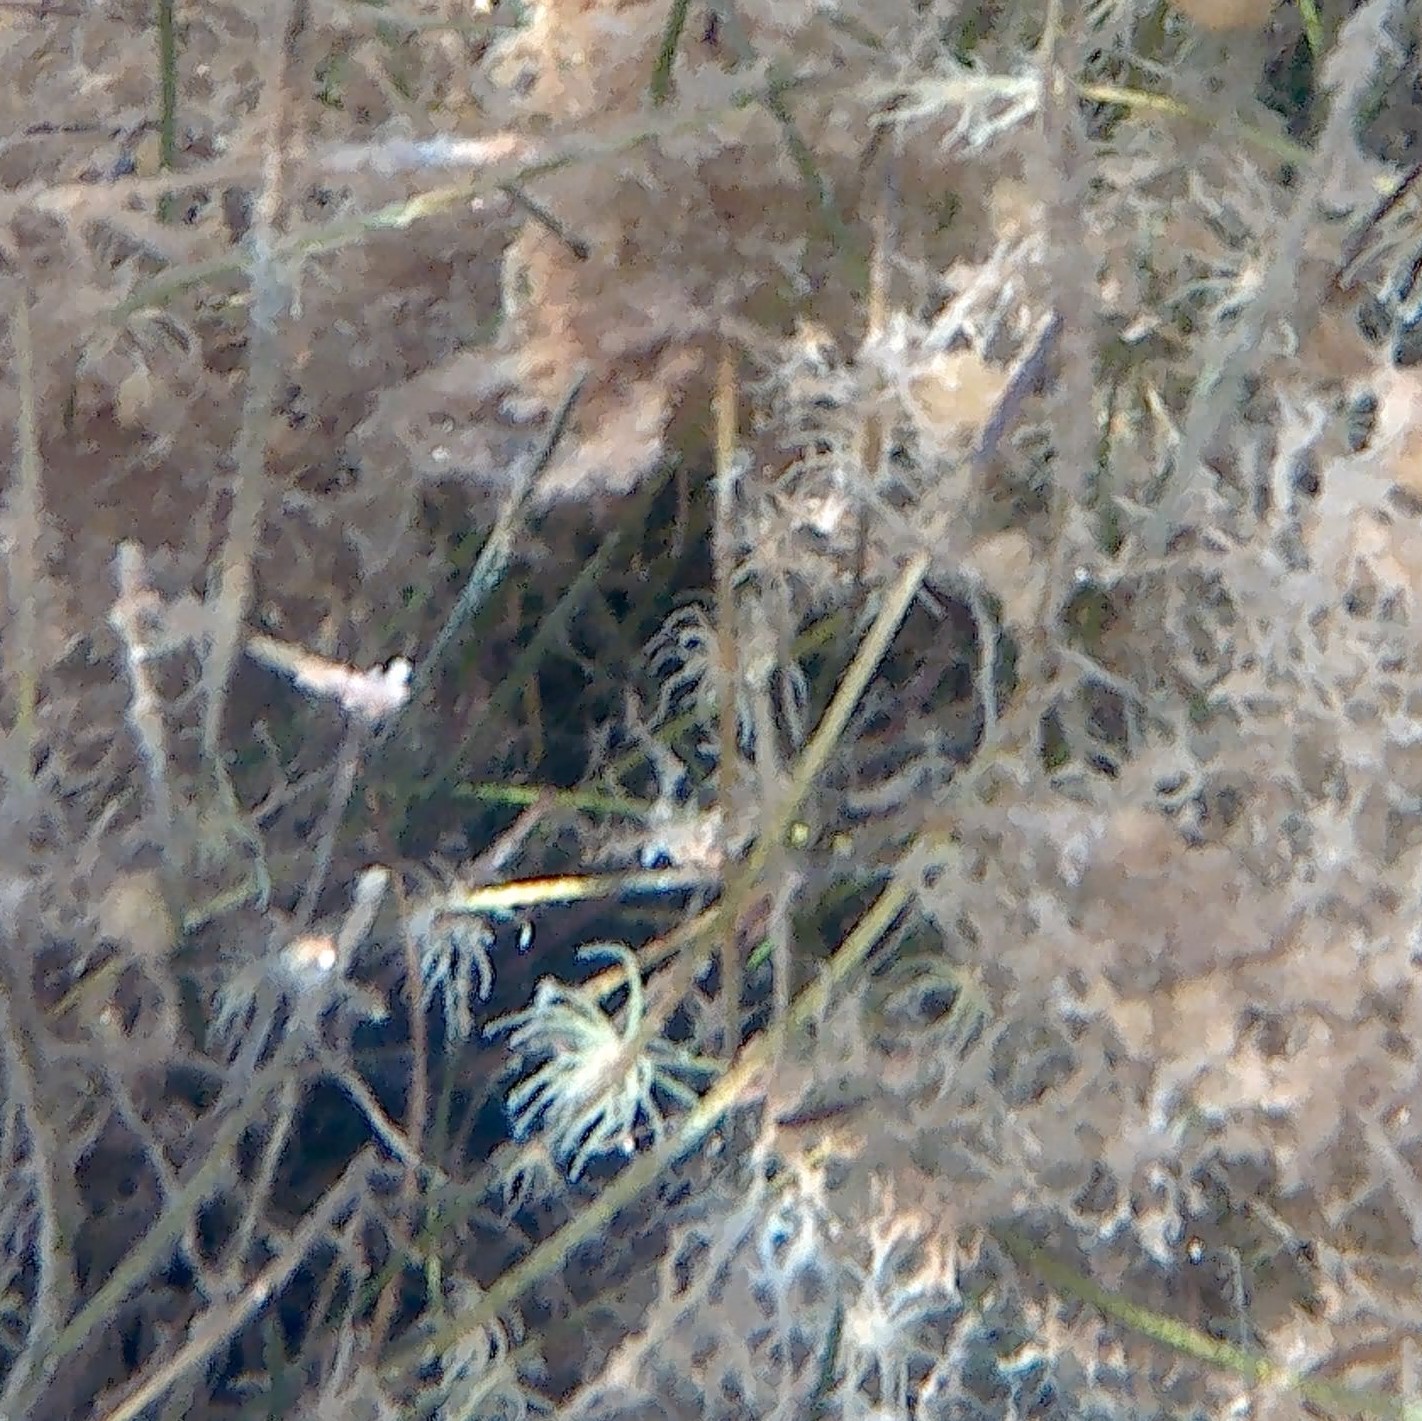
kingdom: Animalia
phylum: Cnidaria
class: Anthozoa
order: Actiniaria
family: Boloceroididae
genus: Bunodeopsis
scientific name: Bunodeopsis strumosa
